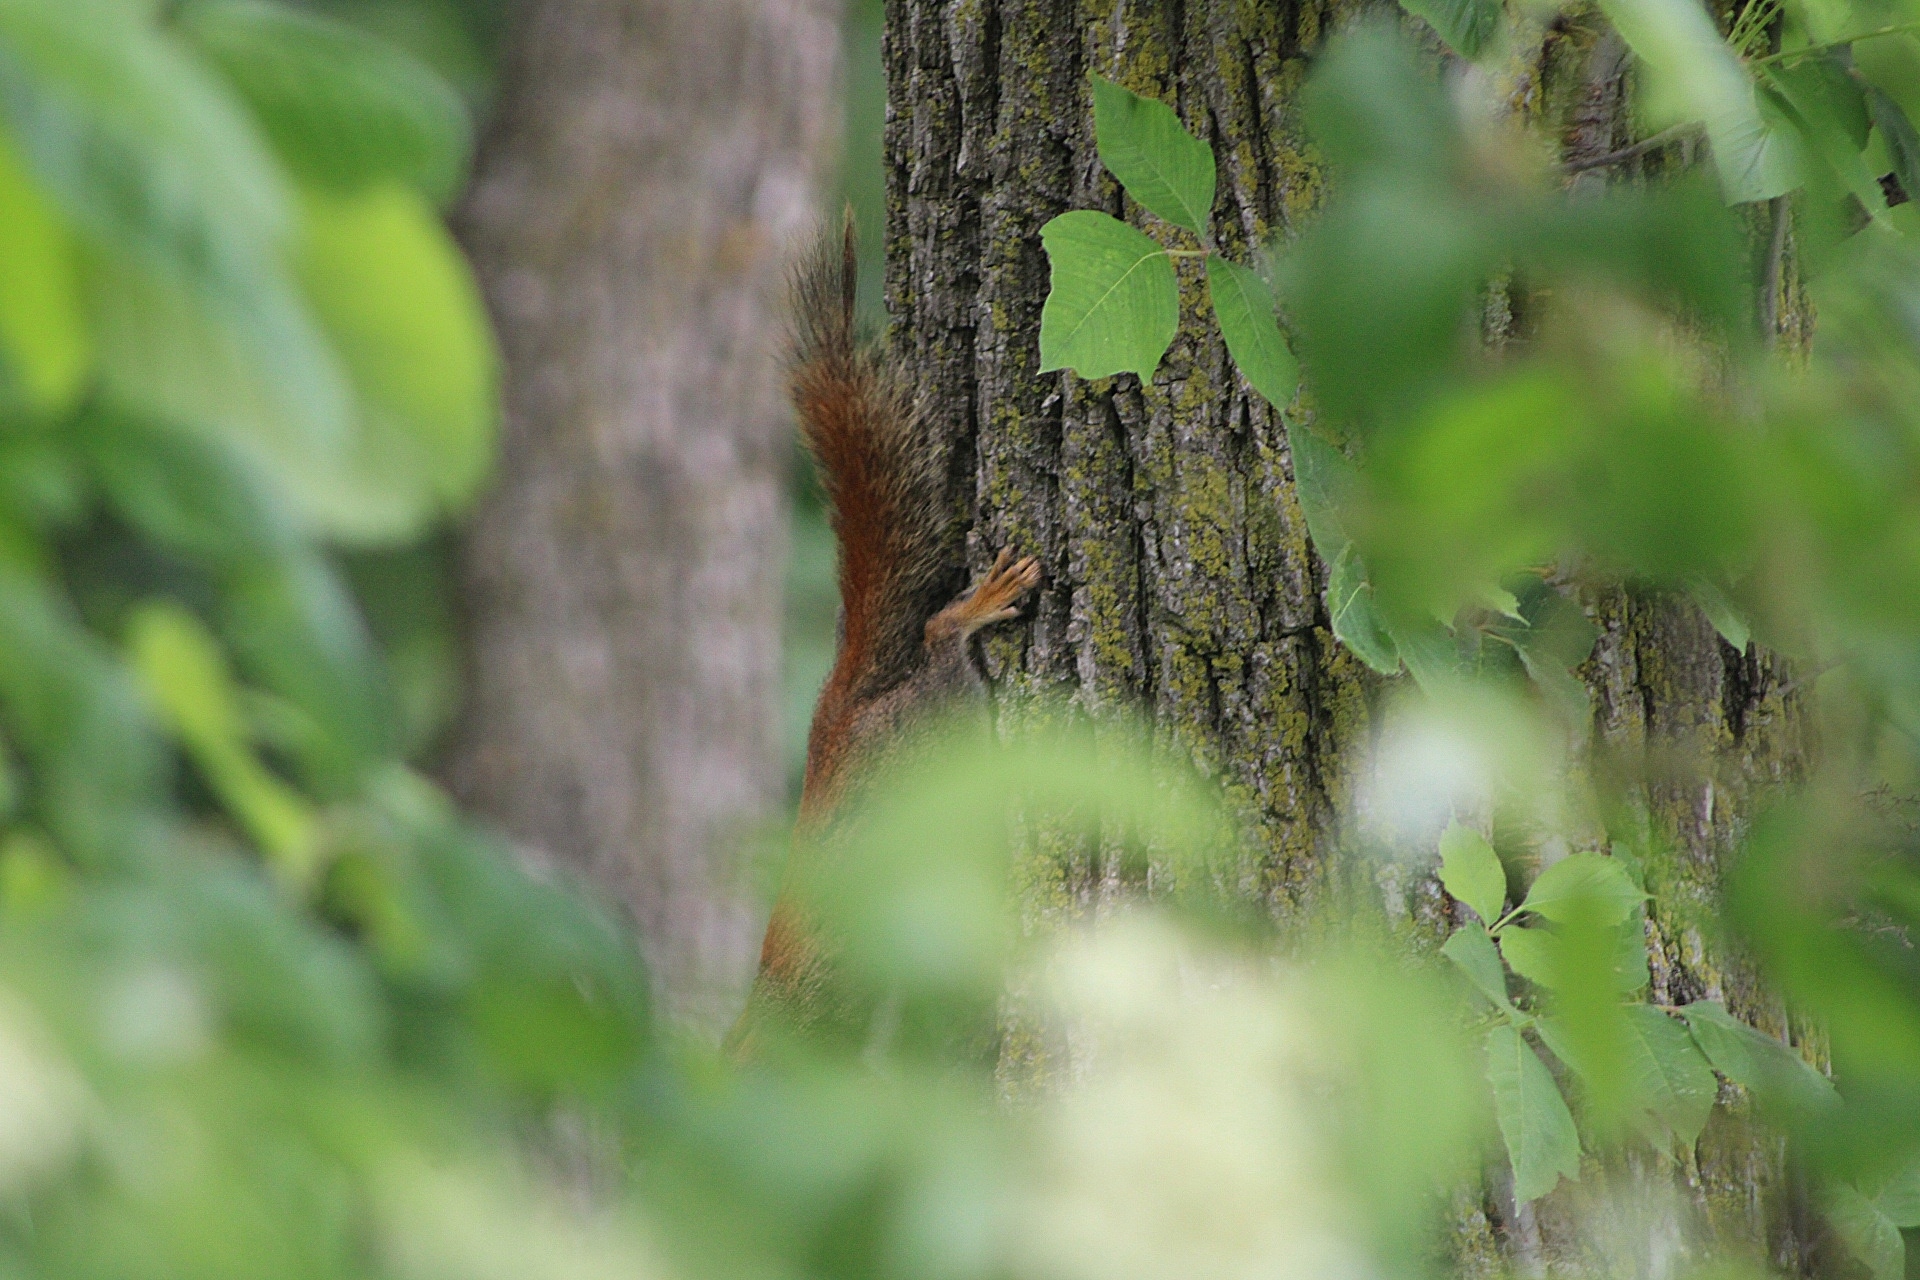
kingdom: Animalia
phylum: Chordata
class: Mammalia
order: Rodentia
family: Sciuridae
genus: Tamiasciurus
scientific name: Tamiasciurus hudsonicus
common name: Red squirrel
